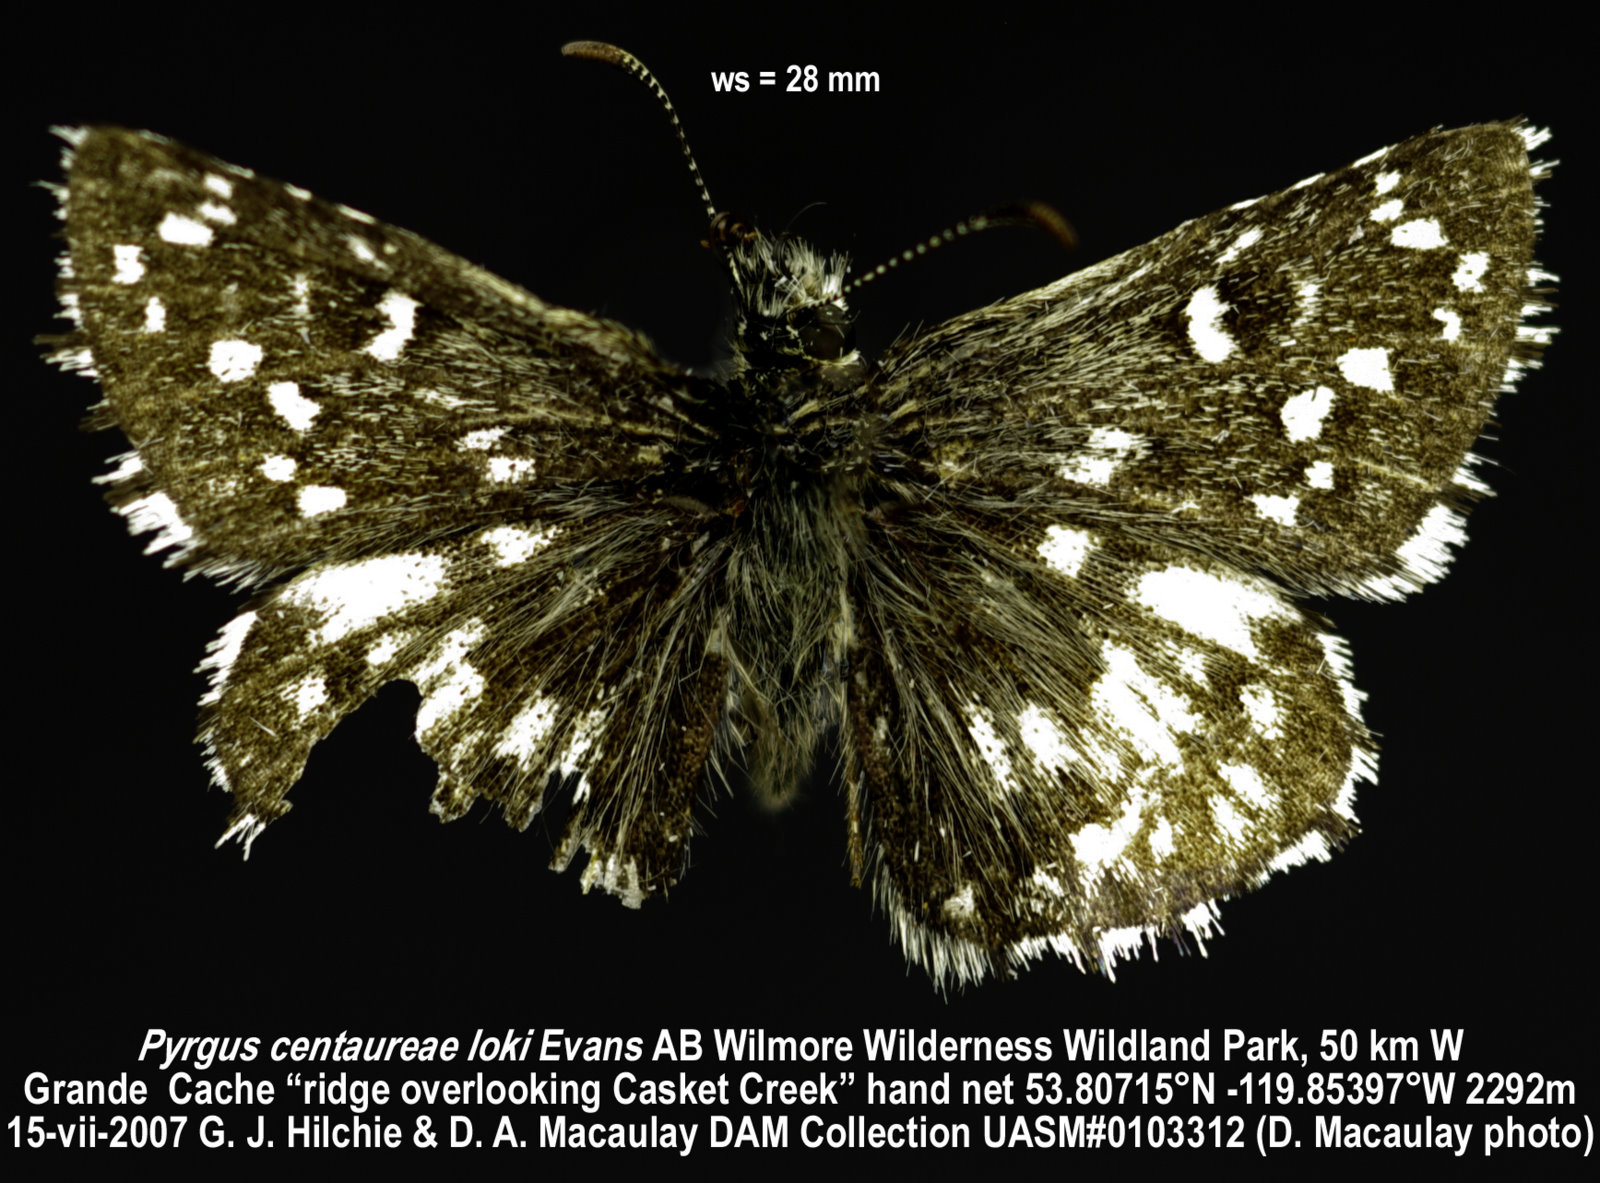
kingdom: Animalia
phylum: Arthropoda
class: Insecta
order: Lepidoptera
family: Hesperiidae
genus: Pyrgus
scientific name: Pyrgus centaureae
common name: Northern grizzled skipper
